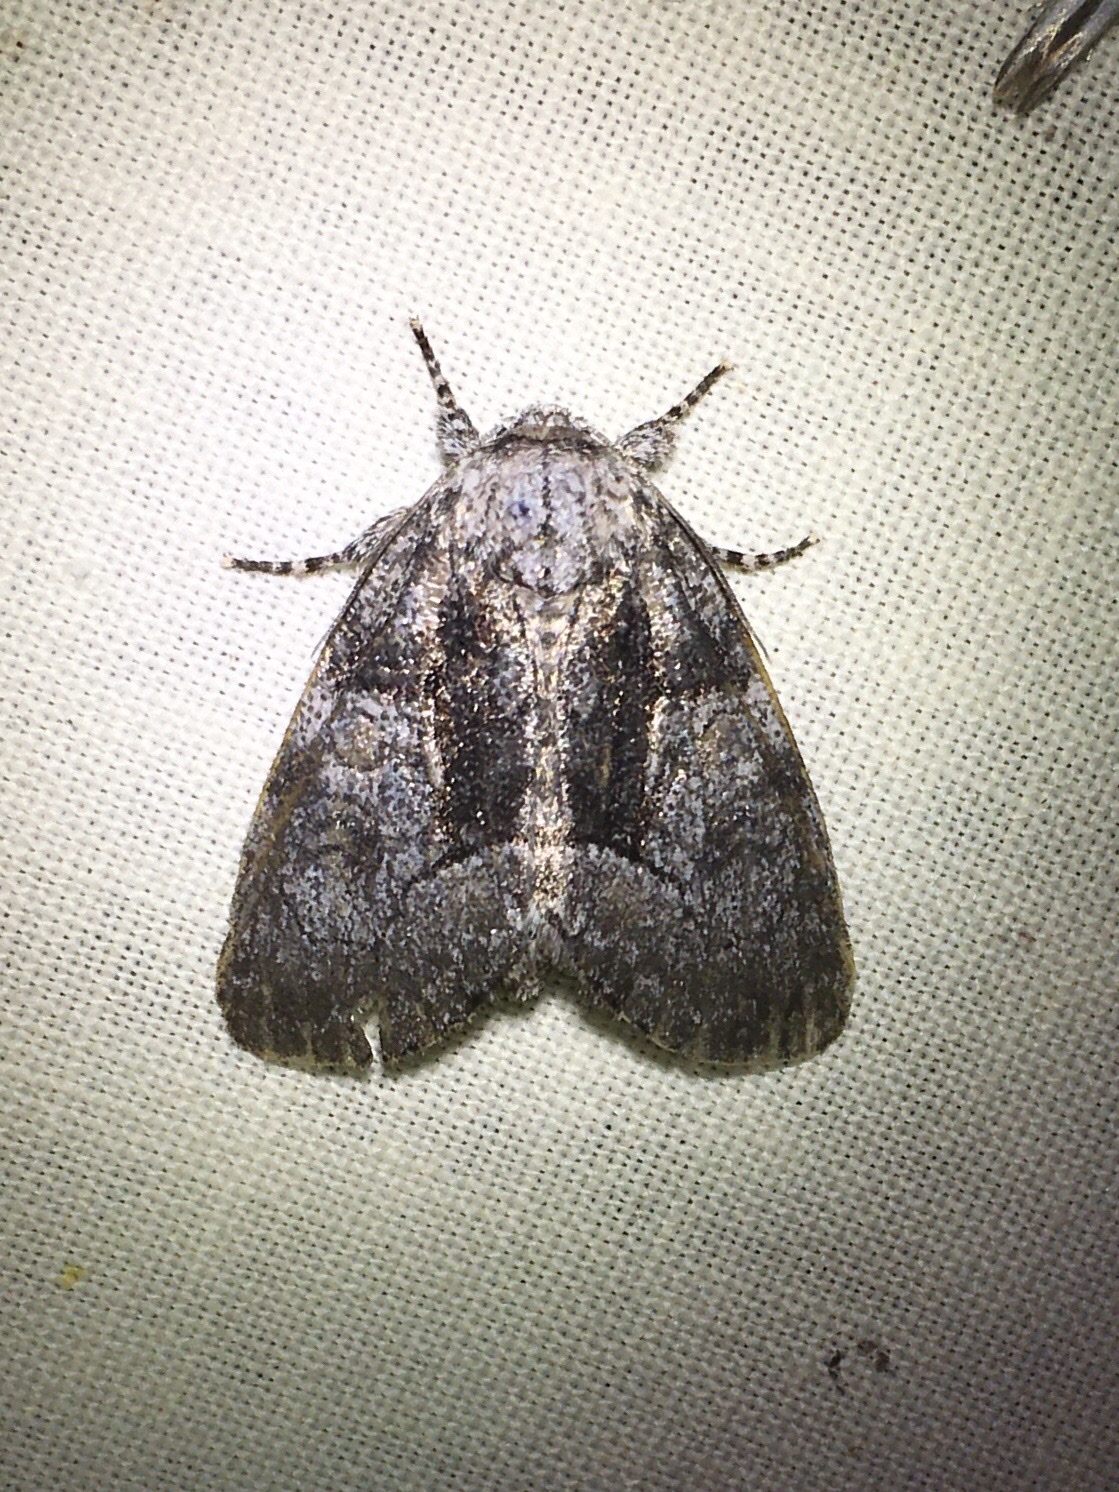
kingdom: Animalia
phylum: Arthropoda
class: Insecta
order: Lepidoptera
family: Noctuidae
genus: Raphia
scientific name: Raphia frater
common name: Brother
